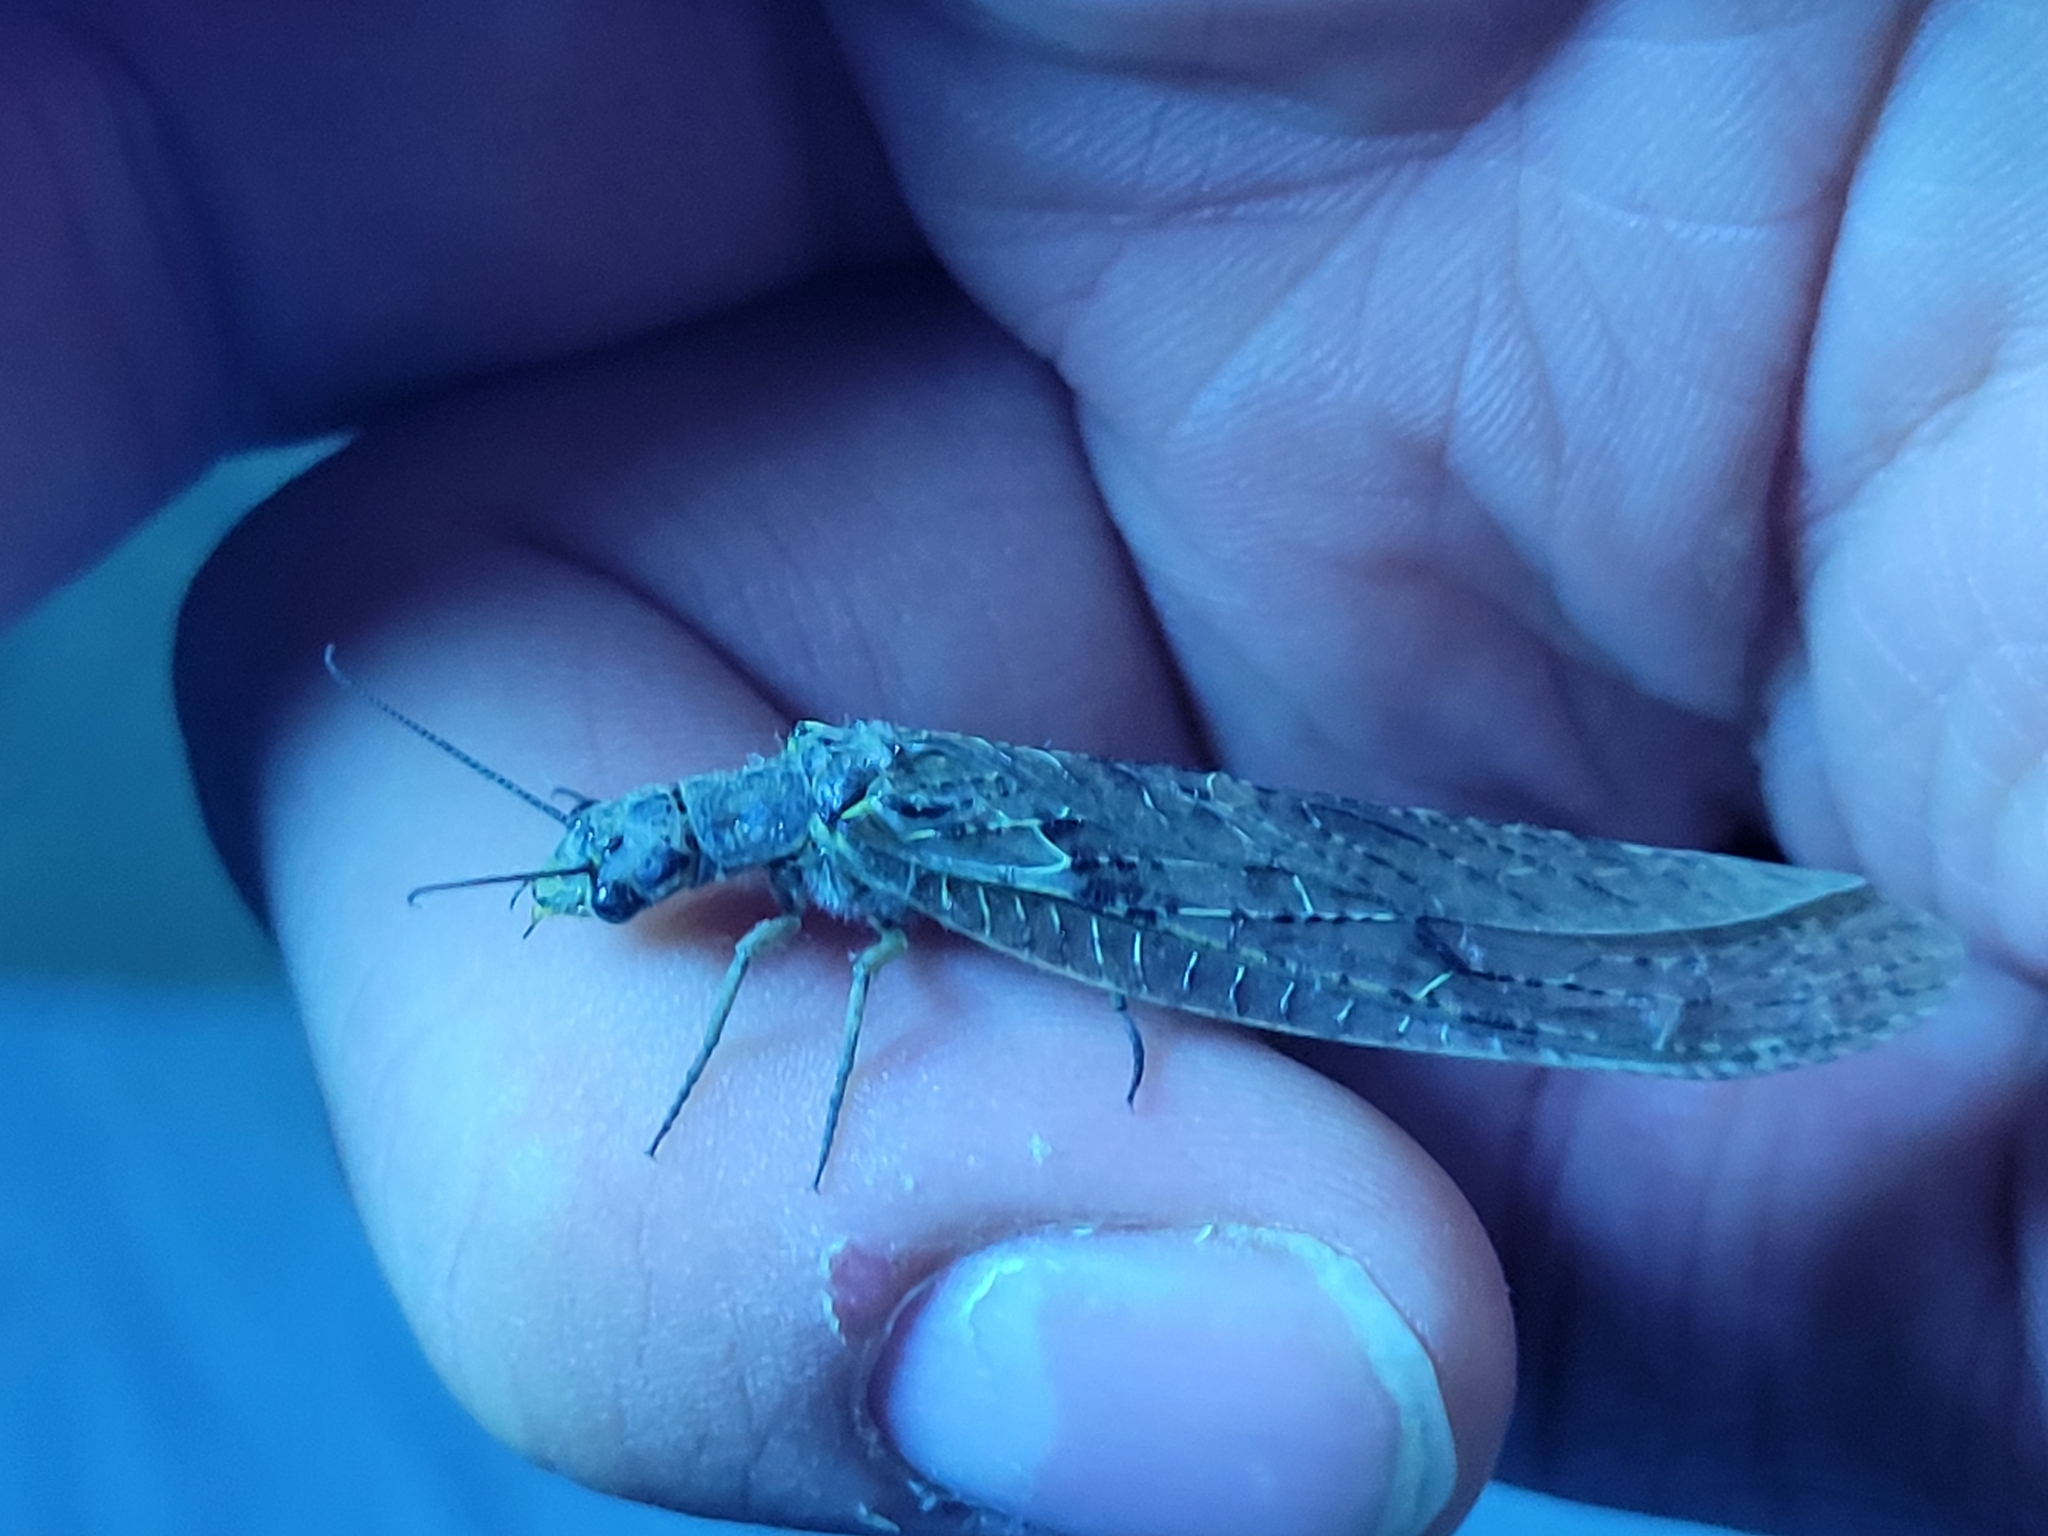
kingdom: Animalia
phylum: Arthropoda
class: Insecta
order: Megaloptera
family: Corydalidae
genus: Chauliodes
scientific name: Chauliodes rastricornis
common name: Spring fishfly
